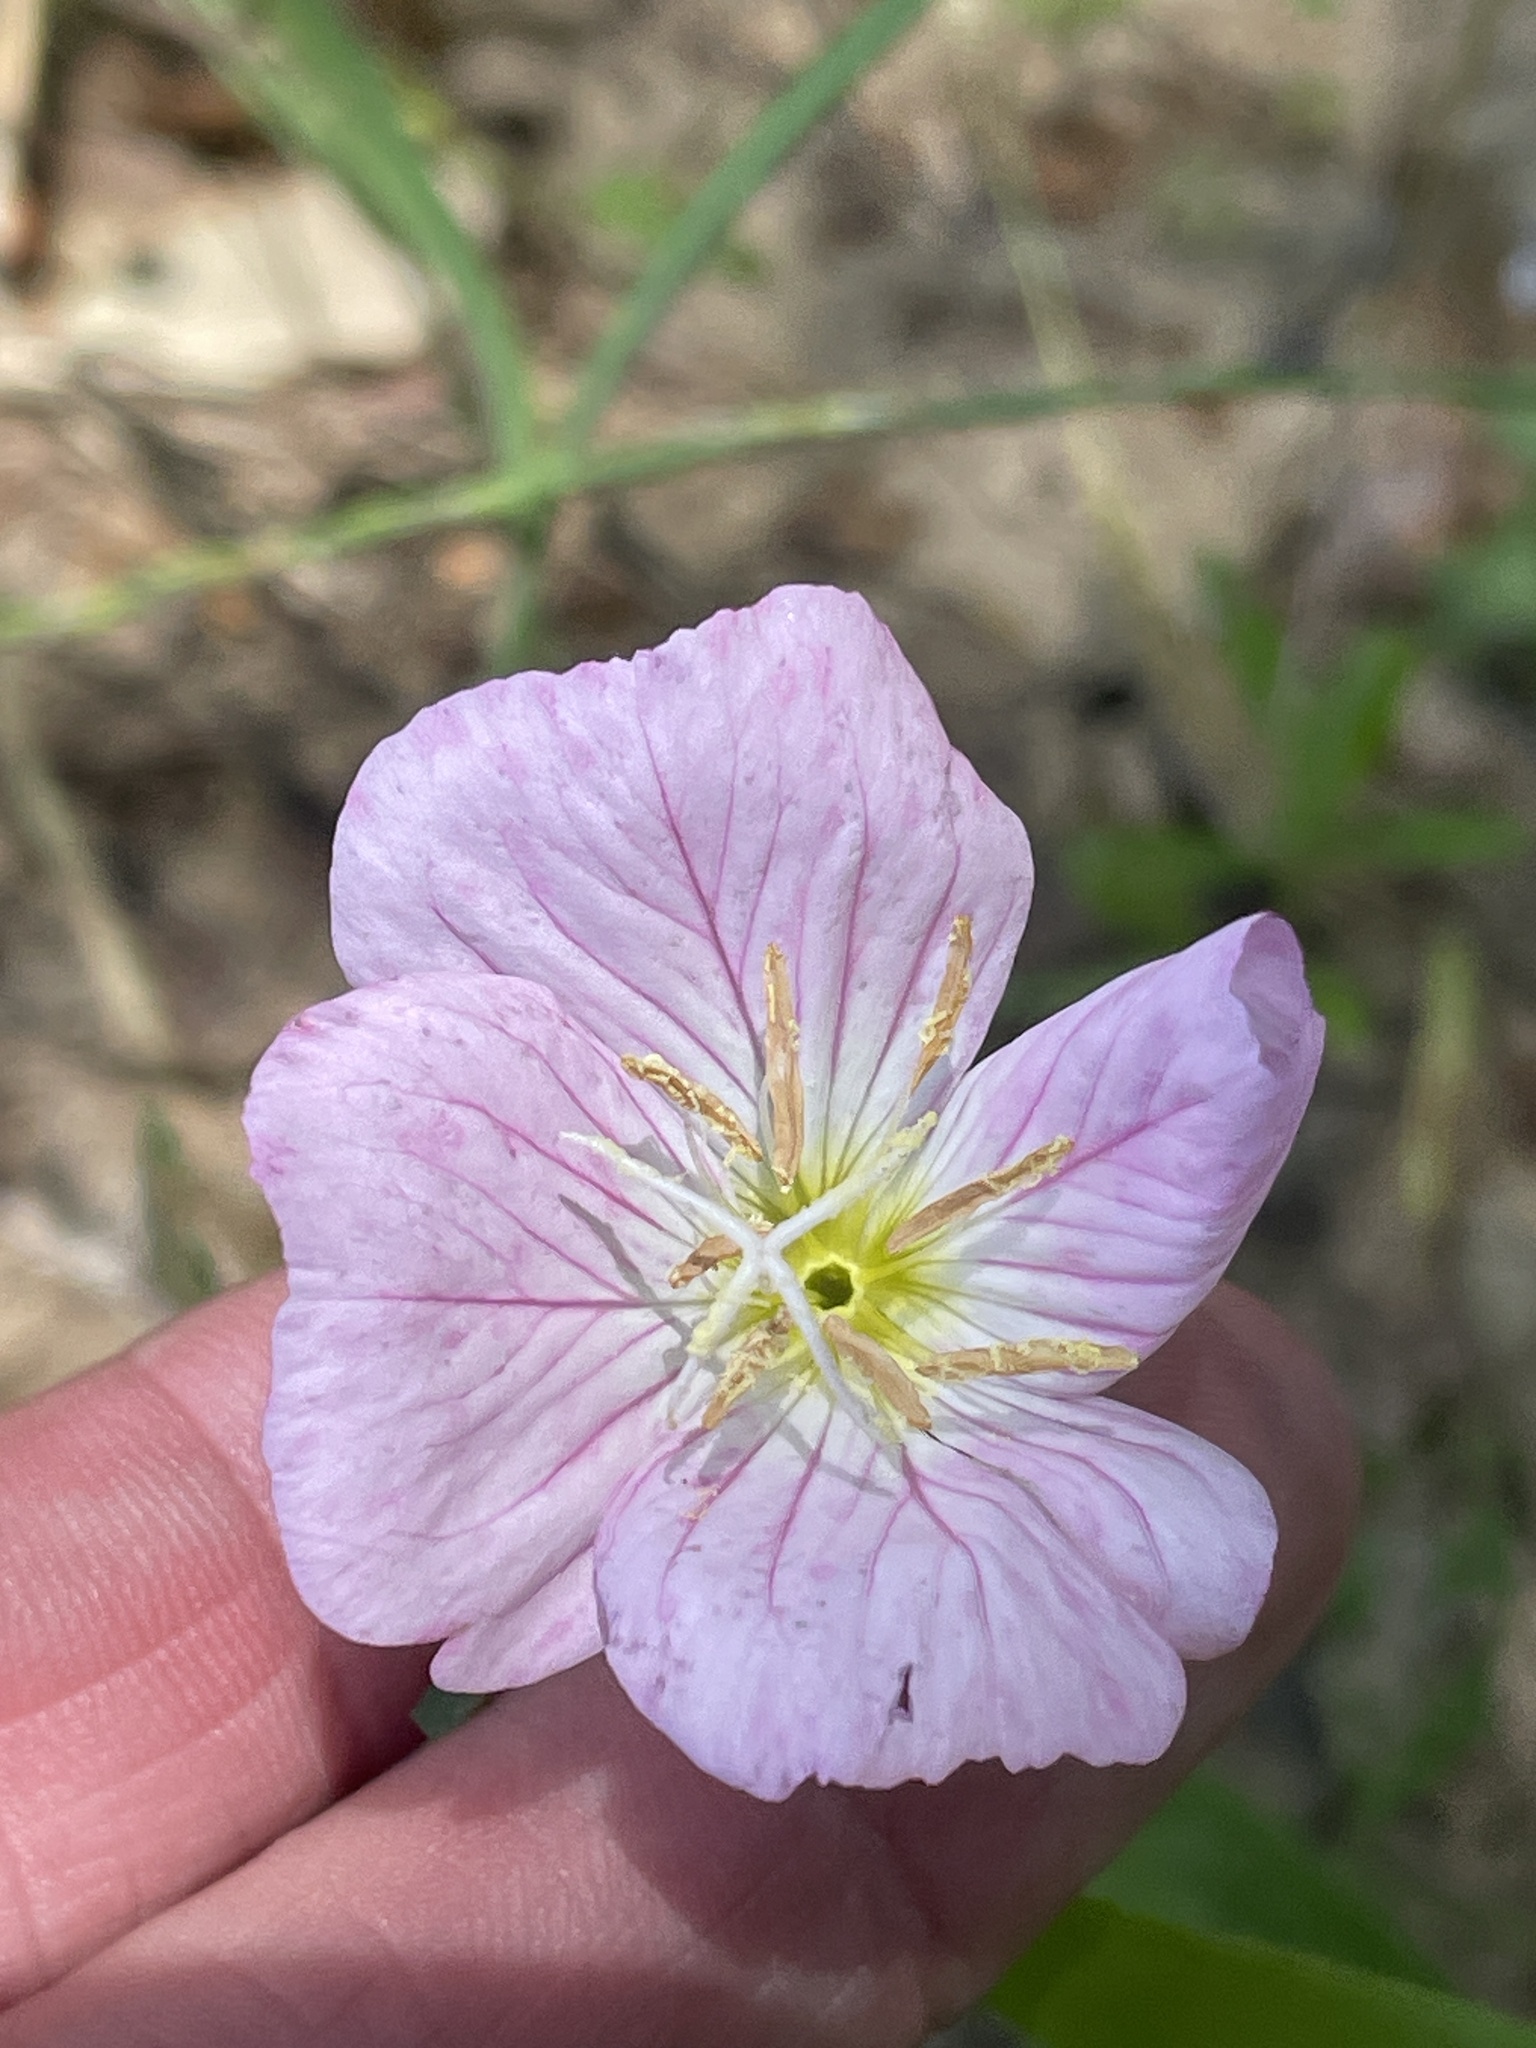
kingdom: Plantae
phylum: Tracheophyta
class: Magnoliopsida
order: Myrtales
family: Onagraceae
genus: Oenothera
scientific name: Oenothera speciosa
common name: White evening-primrose
